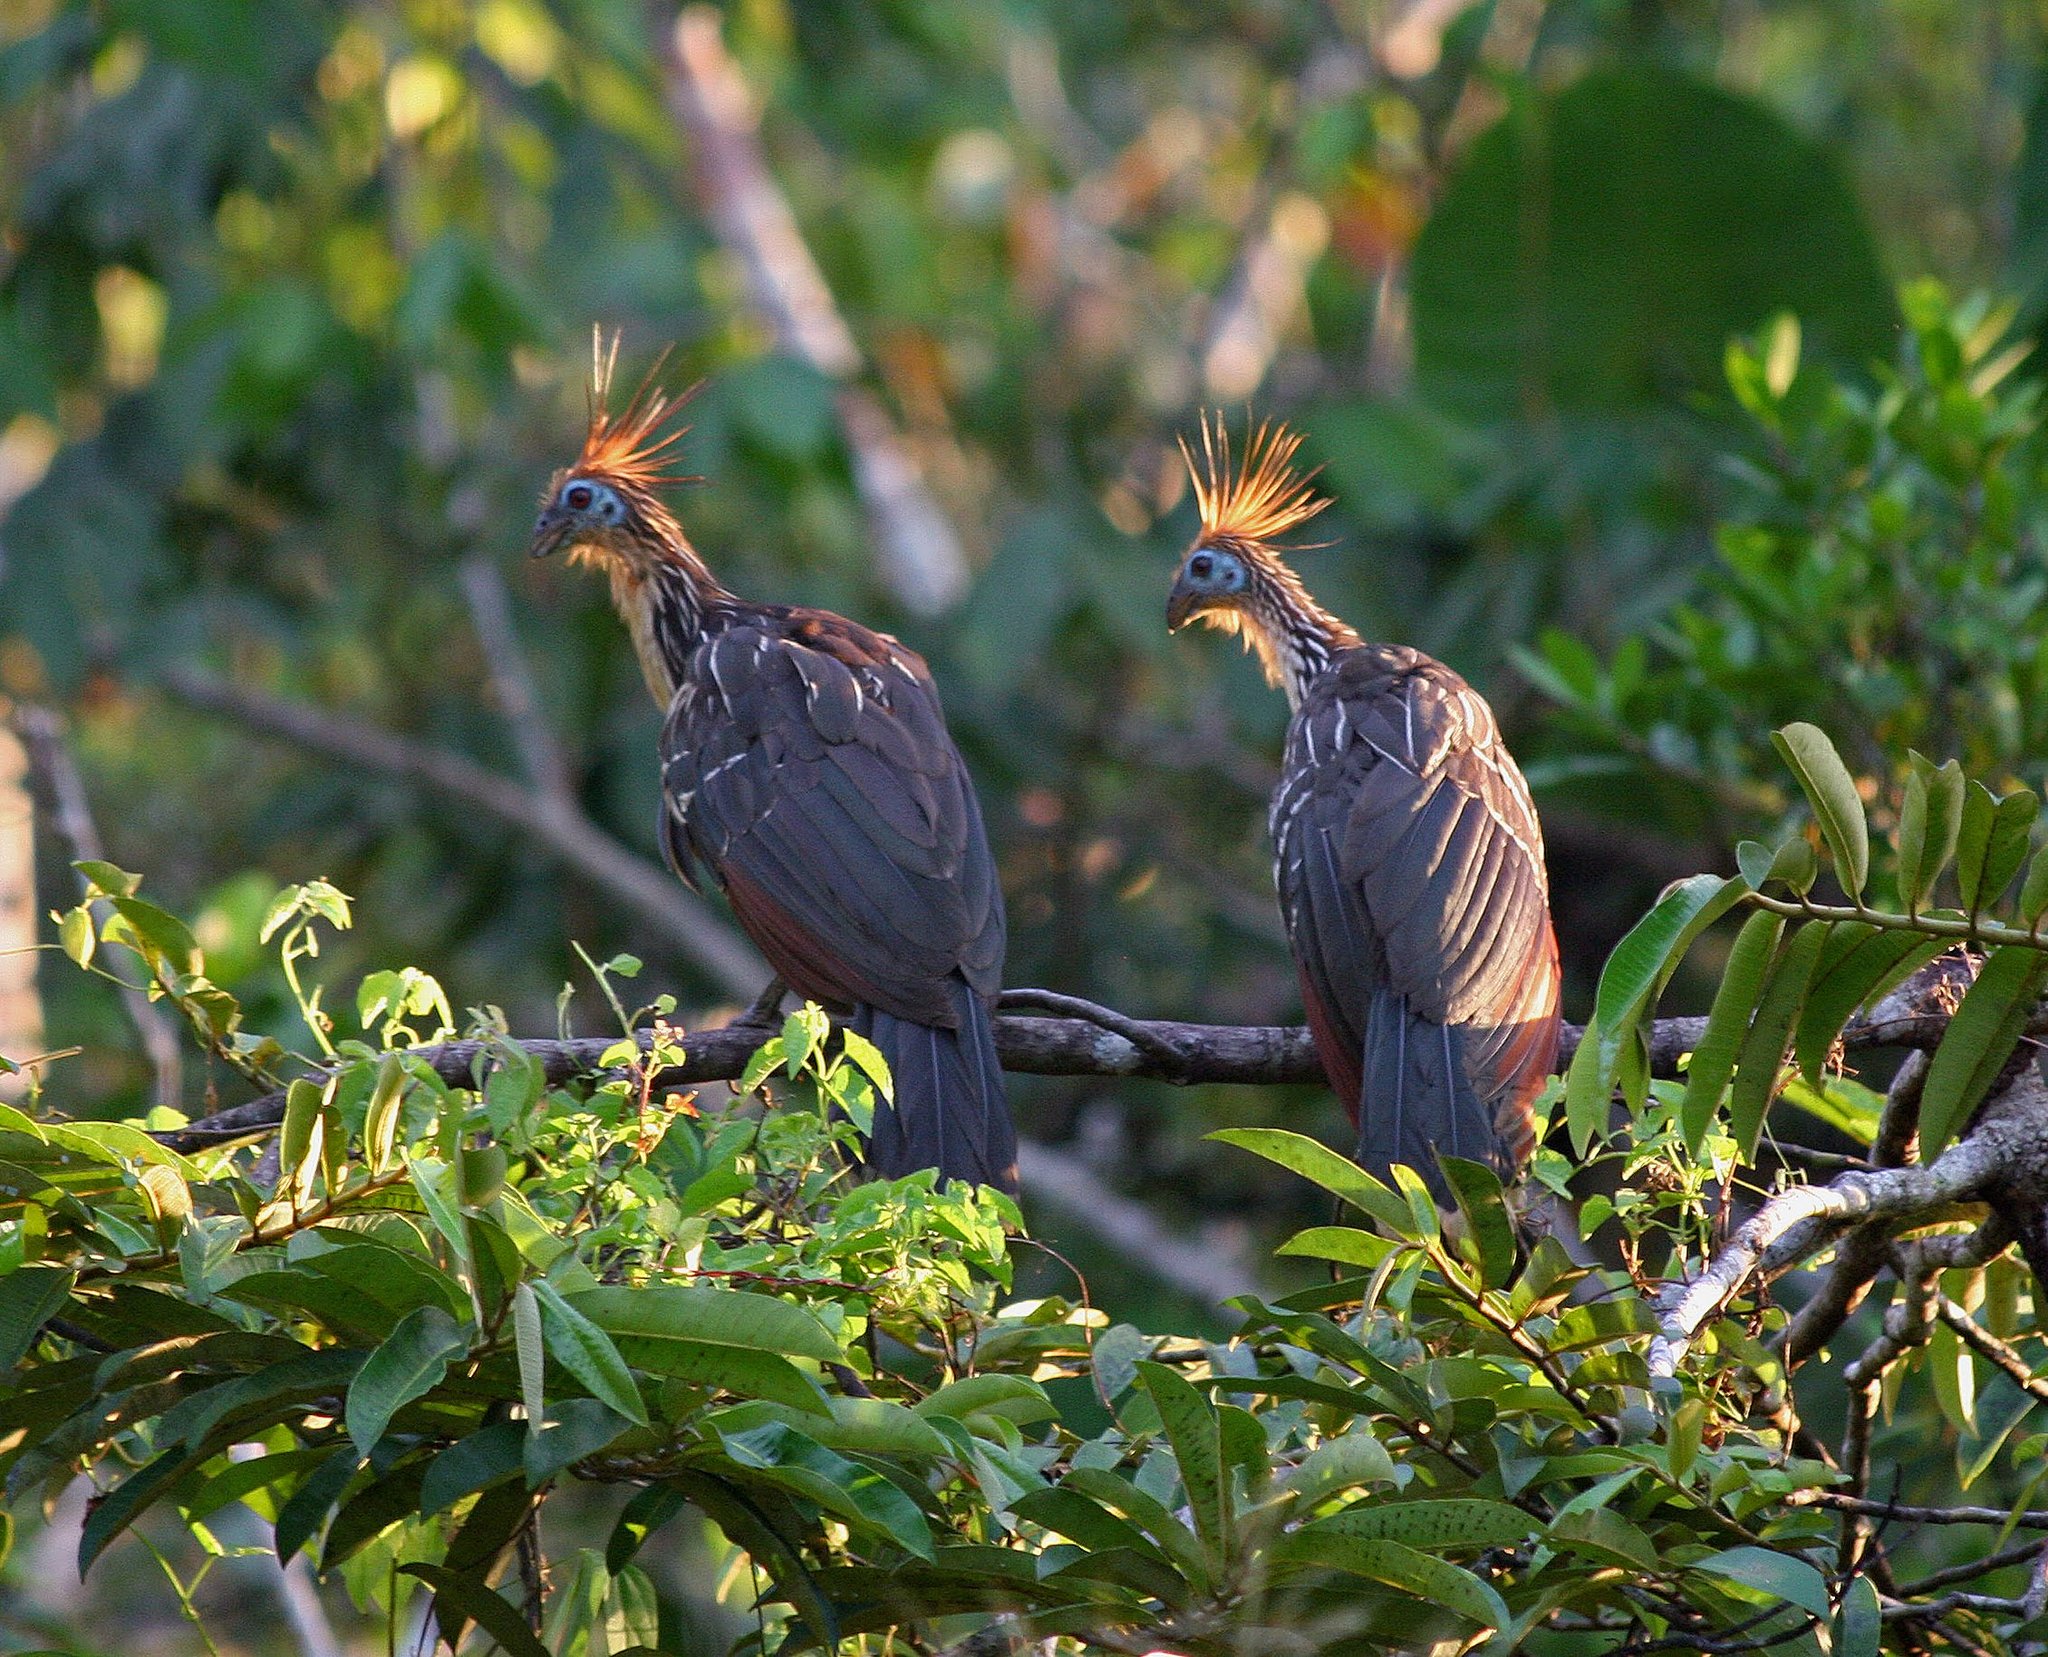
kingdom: Animalia
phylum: Chordata
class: Aves
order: Opisthocomiformes
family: Opisthocomidae
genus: Opisthocomus
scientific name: Opisthocomus hoazin
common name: Hoatzin
